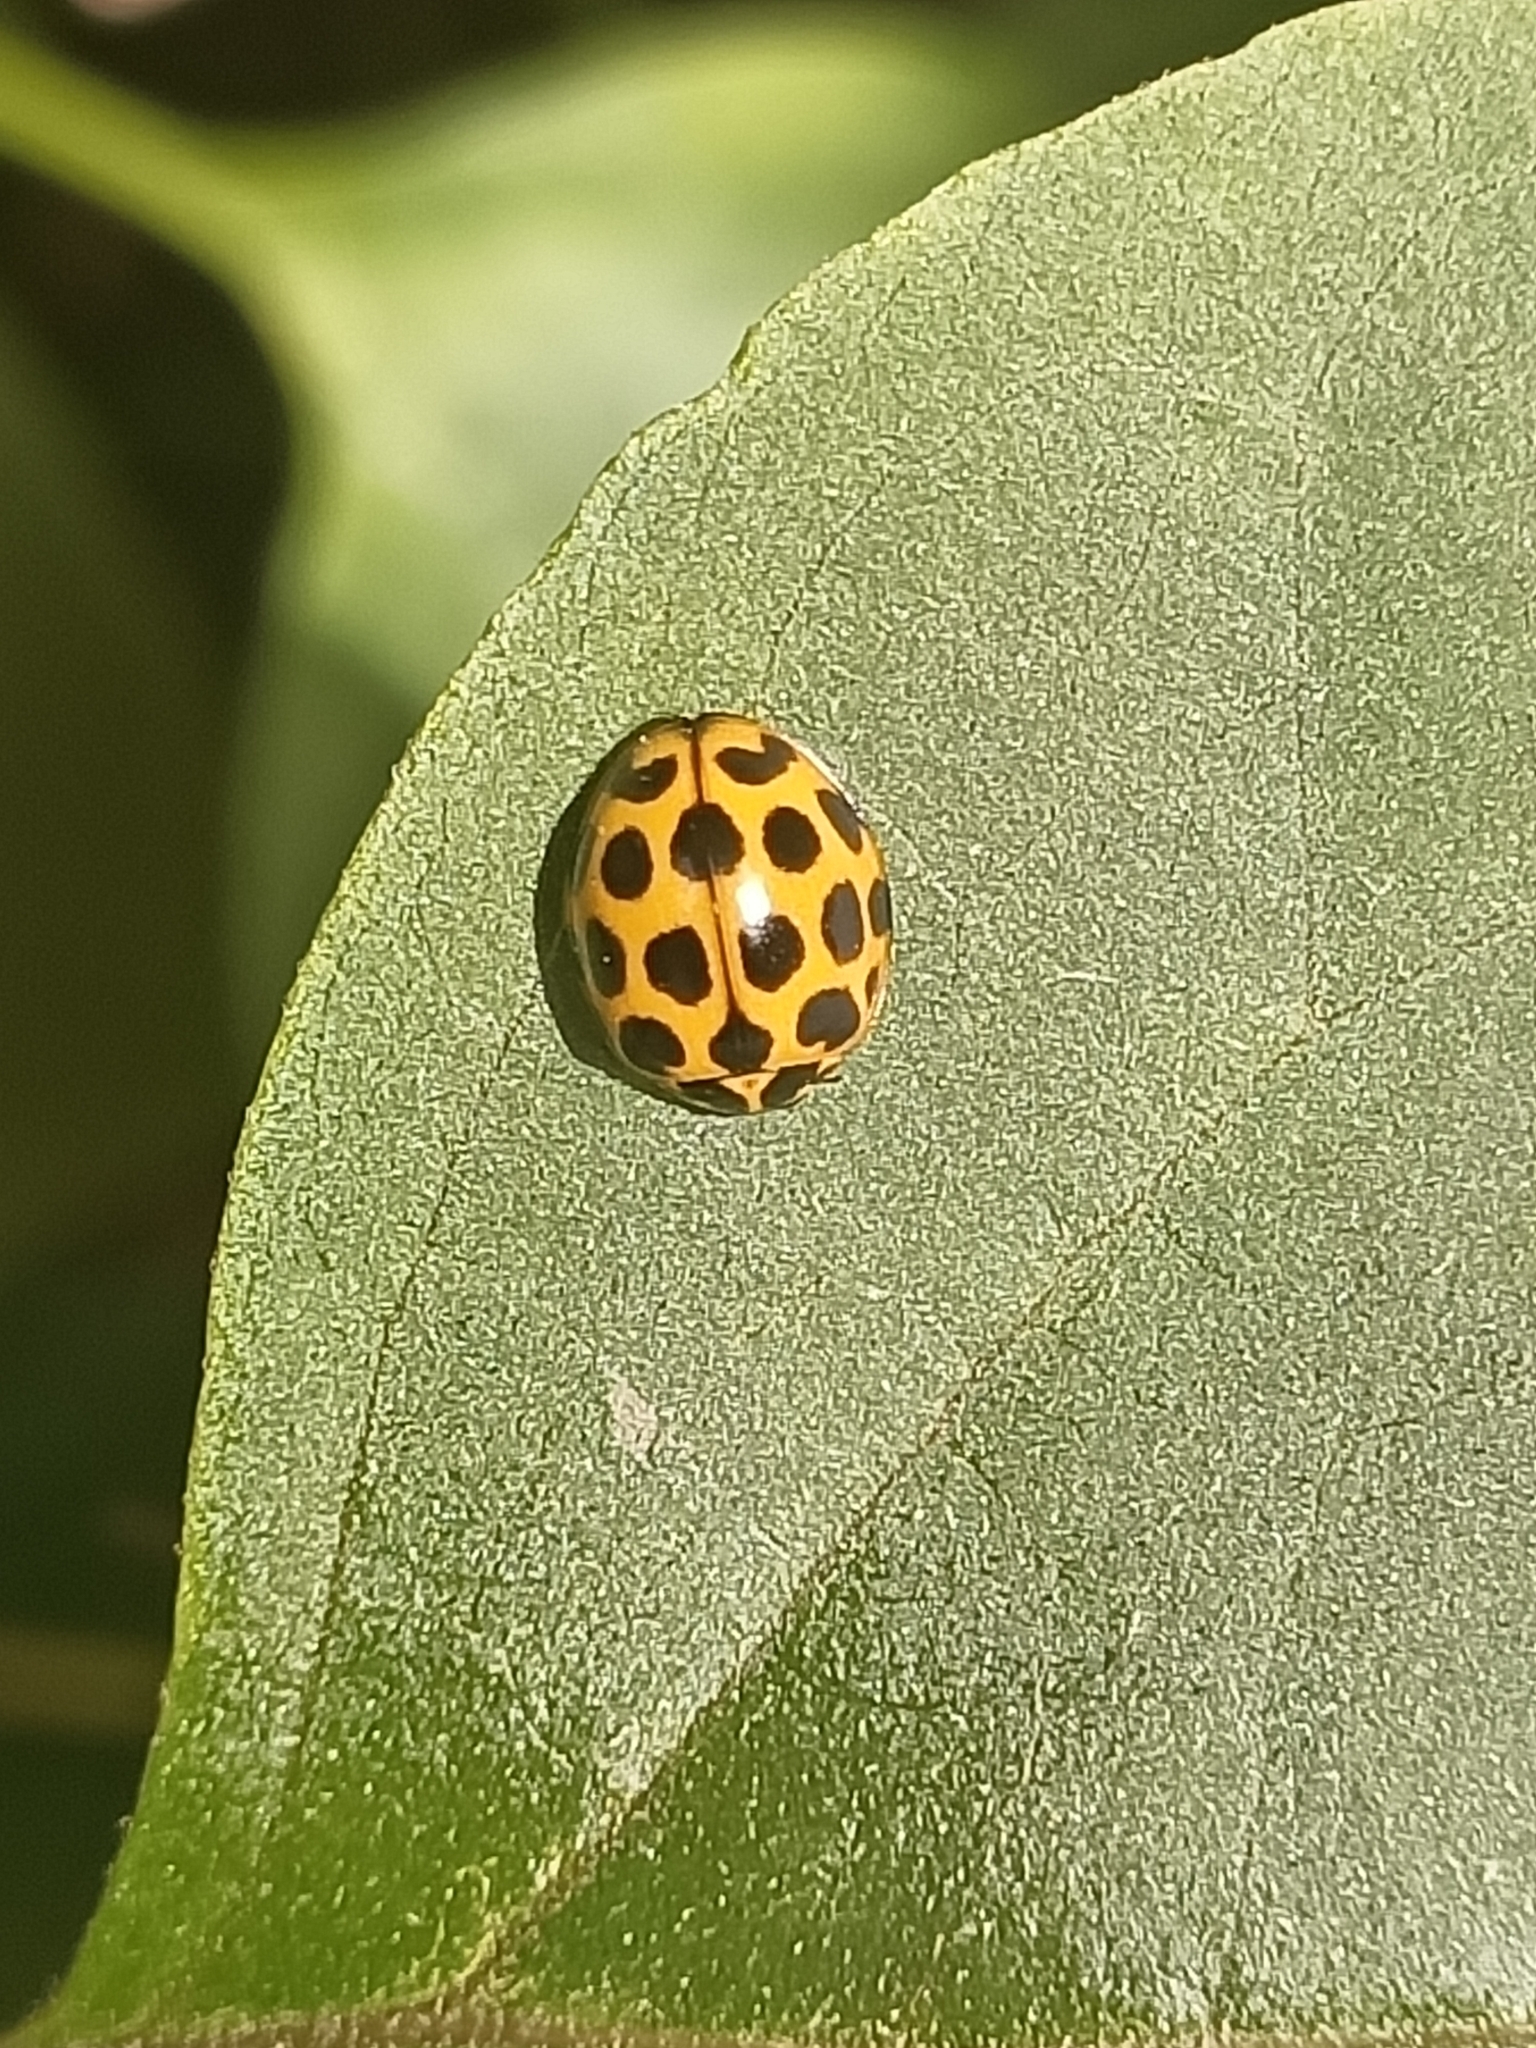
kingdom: Animalia
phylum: Arthropoda
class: Insecta
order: Coleoptera
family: Coccinellidae
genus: Harmonia
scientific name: Harmonia conformis
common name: Common spotted ladybird beetle
